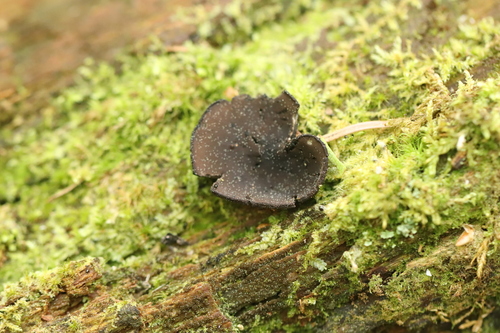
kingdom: Fungi
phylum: Ascomycota
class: Pezizomycetes
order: Pezizales
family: Sarcosomataceae
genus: Pseudoplectania
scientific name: Pseudoplectania nigrella
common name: Ebony cup
